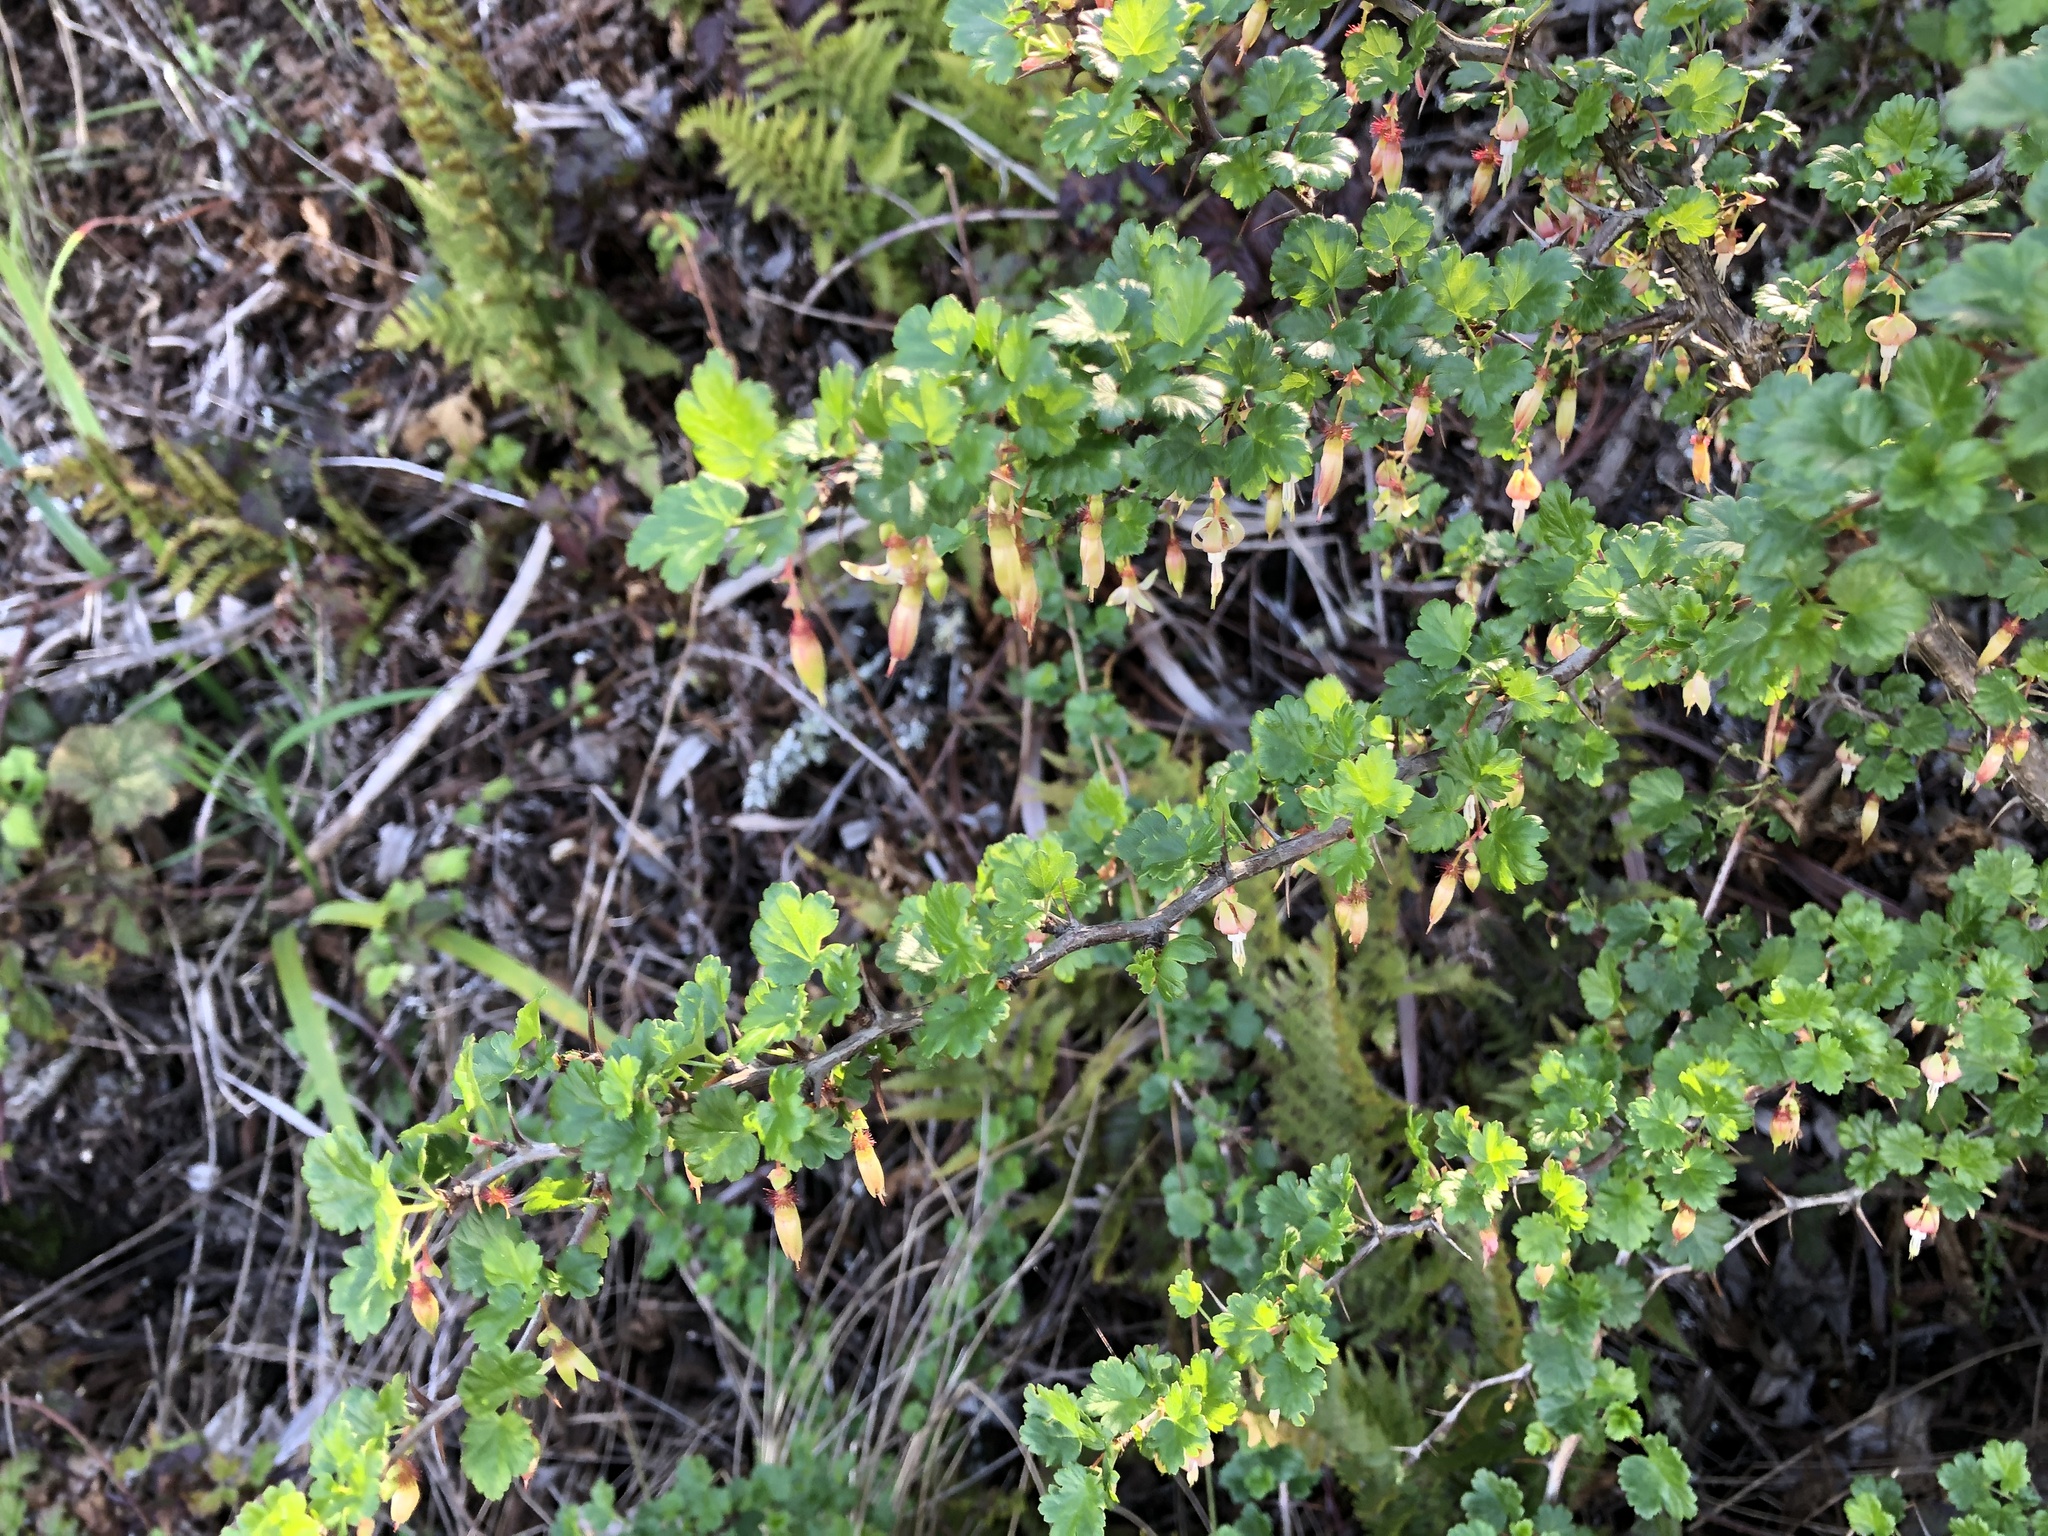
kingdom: Plantae
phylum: Tracheophyta
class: Magnoliopsida
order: Saxifragales
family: Grossulariaceae
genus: Ribes
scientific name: Ribes californicum
